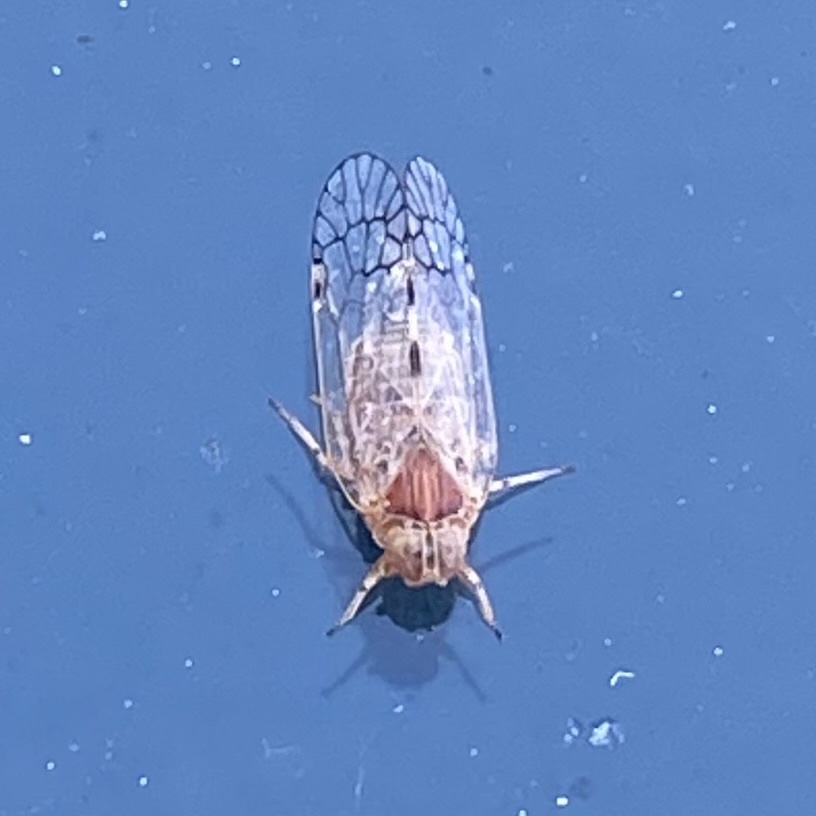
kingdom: Animalia
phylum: Arthropoda
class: Insecta
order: Hemiptera
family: Cixiidae
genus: Oecleus
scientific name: Oecleus
